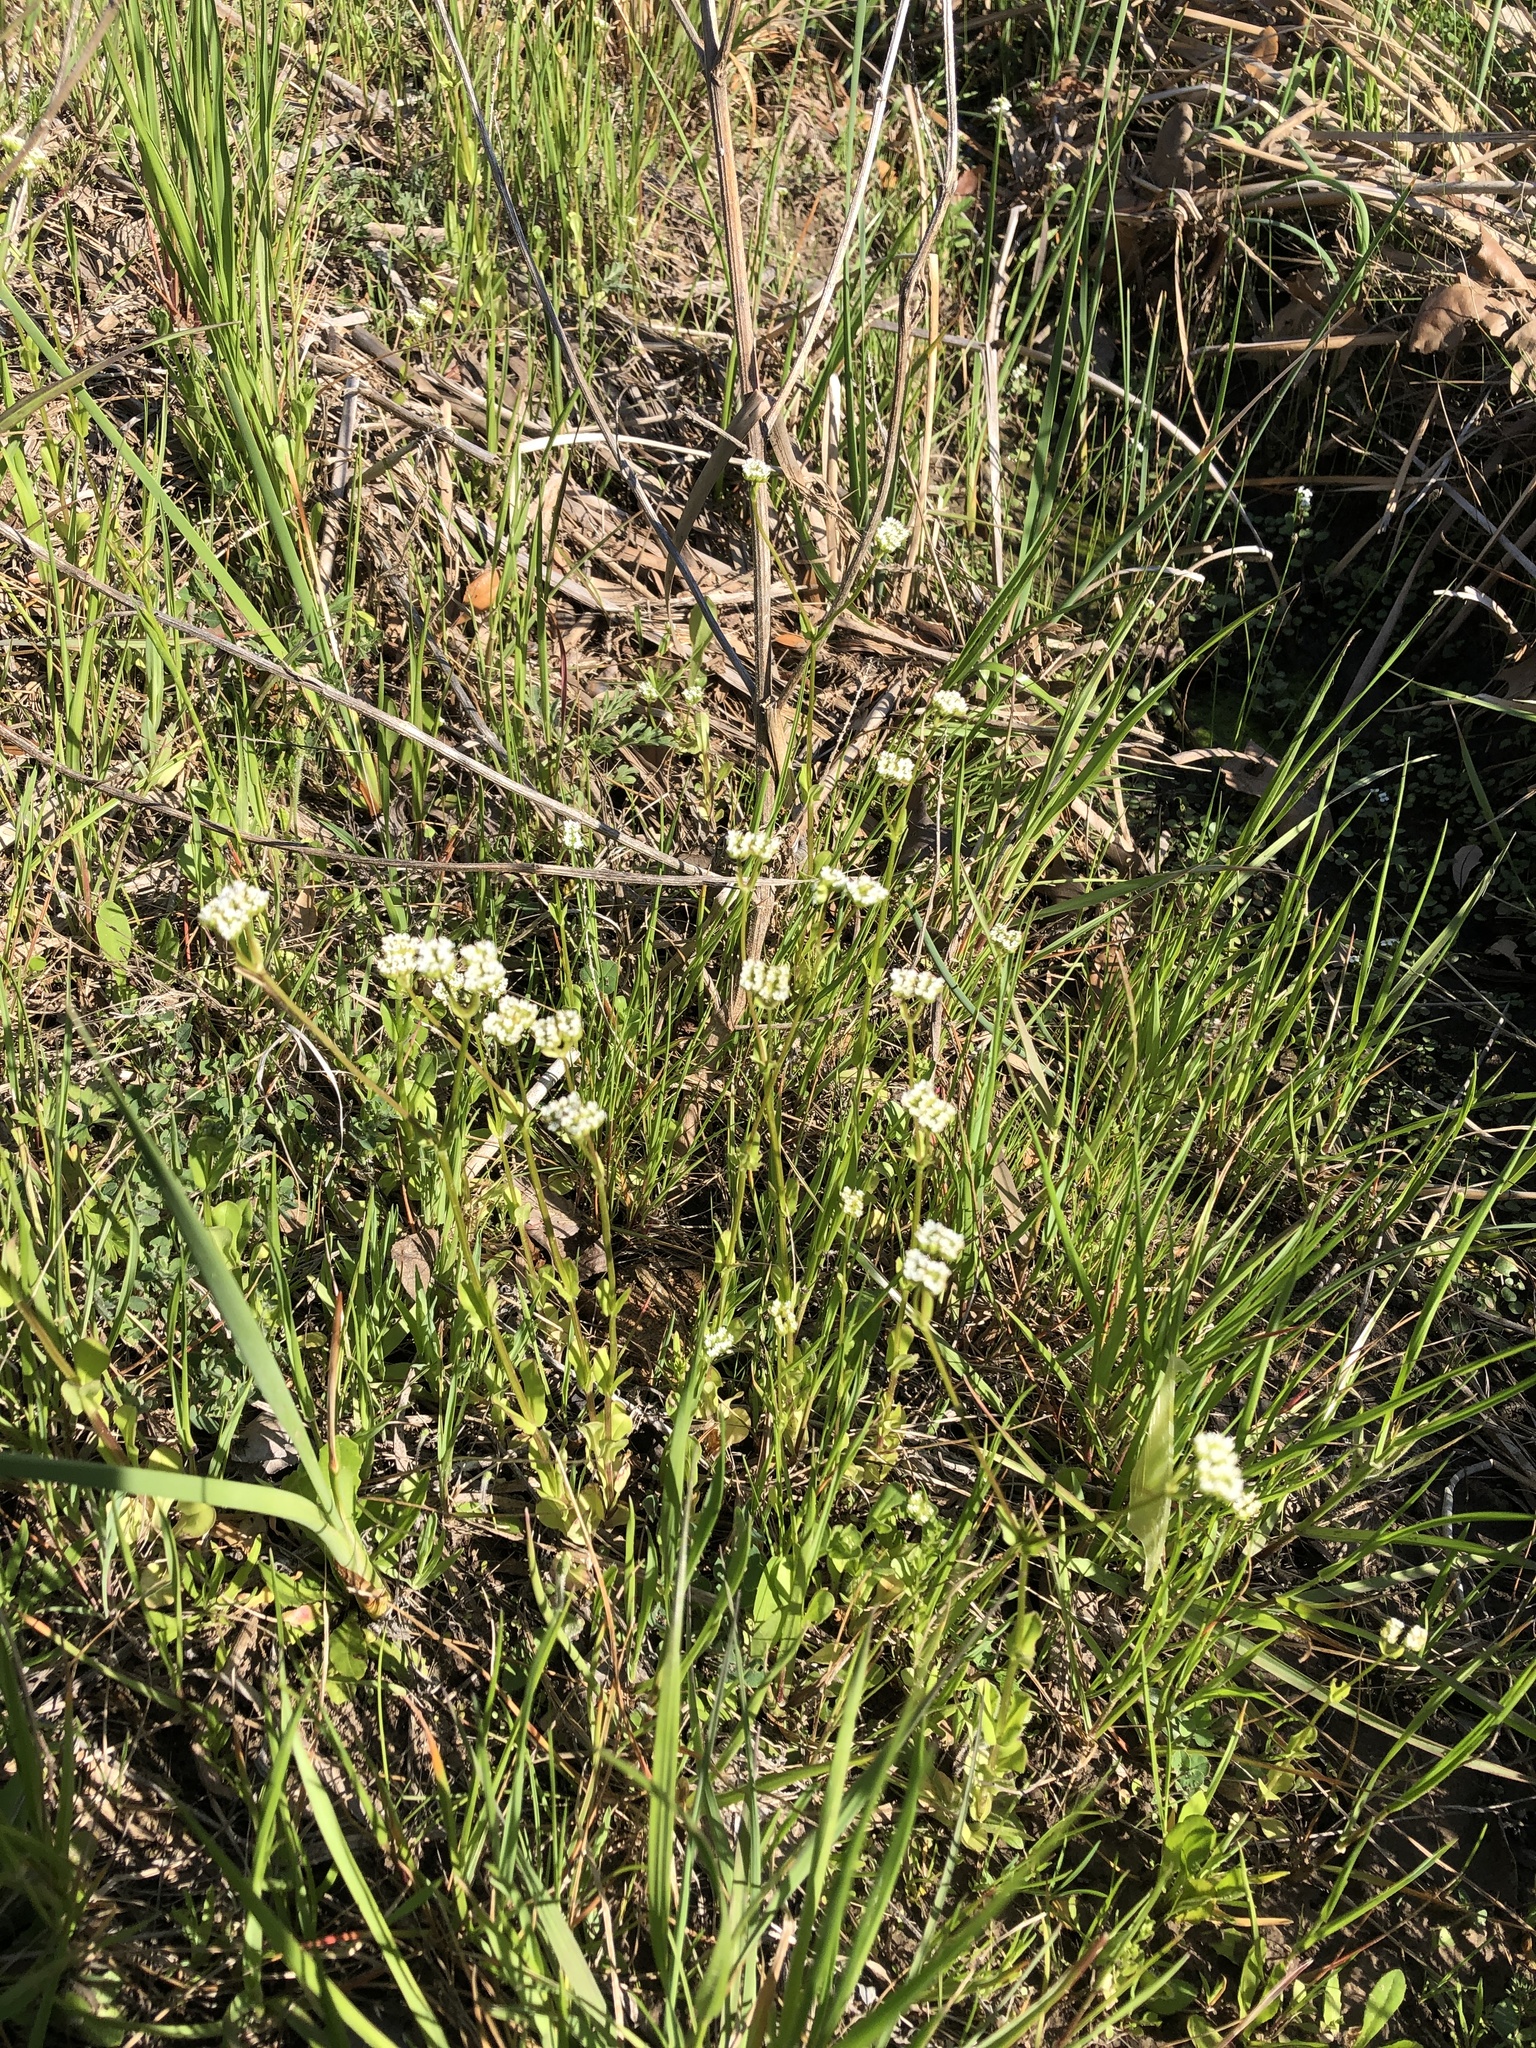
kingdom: Plantae
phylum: Tracheophyta
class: Magnoliopsida
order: Dipsacales
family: Caprifoliaceae
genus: Valerianella
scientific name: Valerianella radiata
